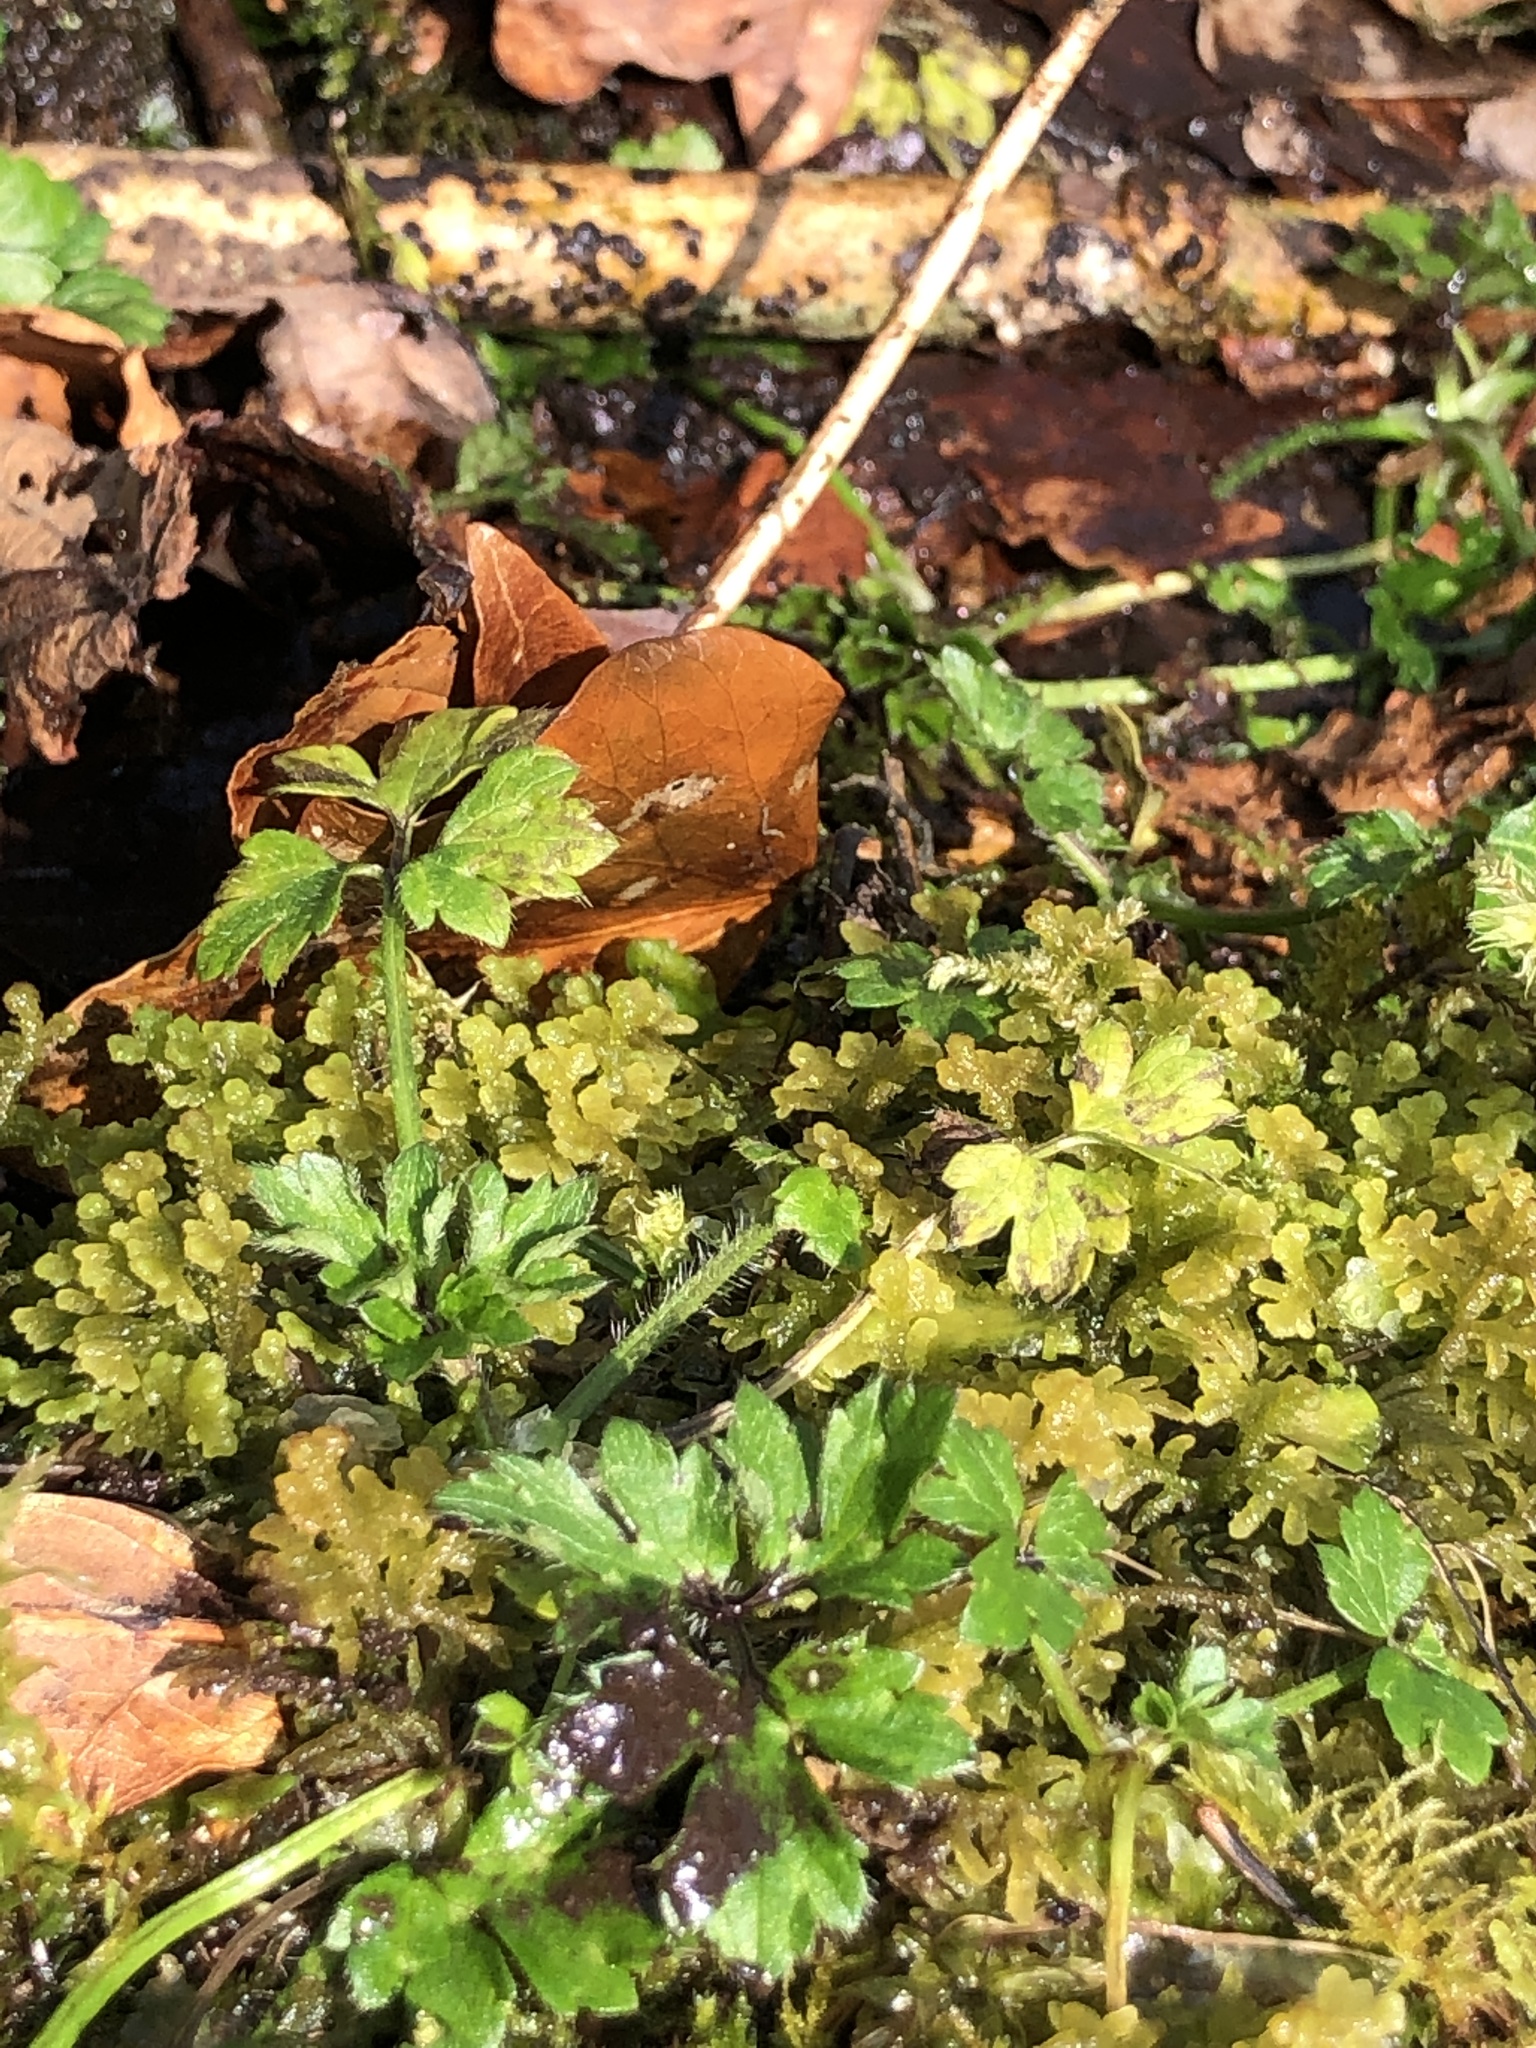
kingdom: Plantae
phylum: Marchantiophyta
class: Jungermanniopsida
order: Jungermanniales
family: Trichocoleaceae
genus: Trichocolea
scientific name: Trichocolea tomentella
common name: Woolly liverwort
